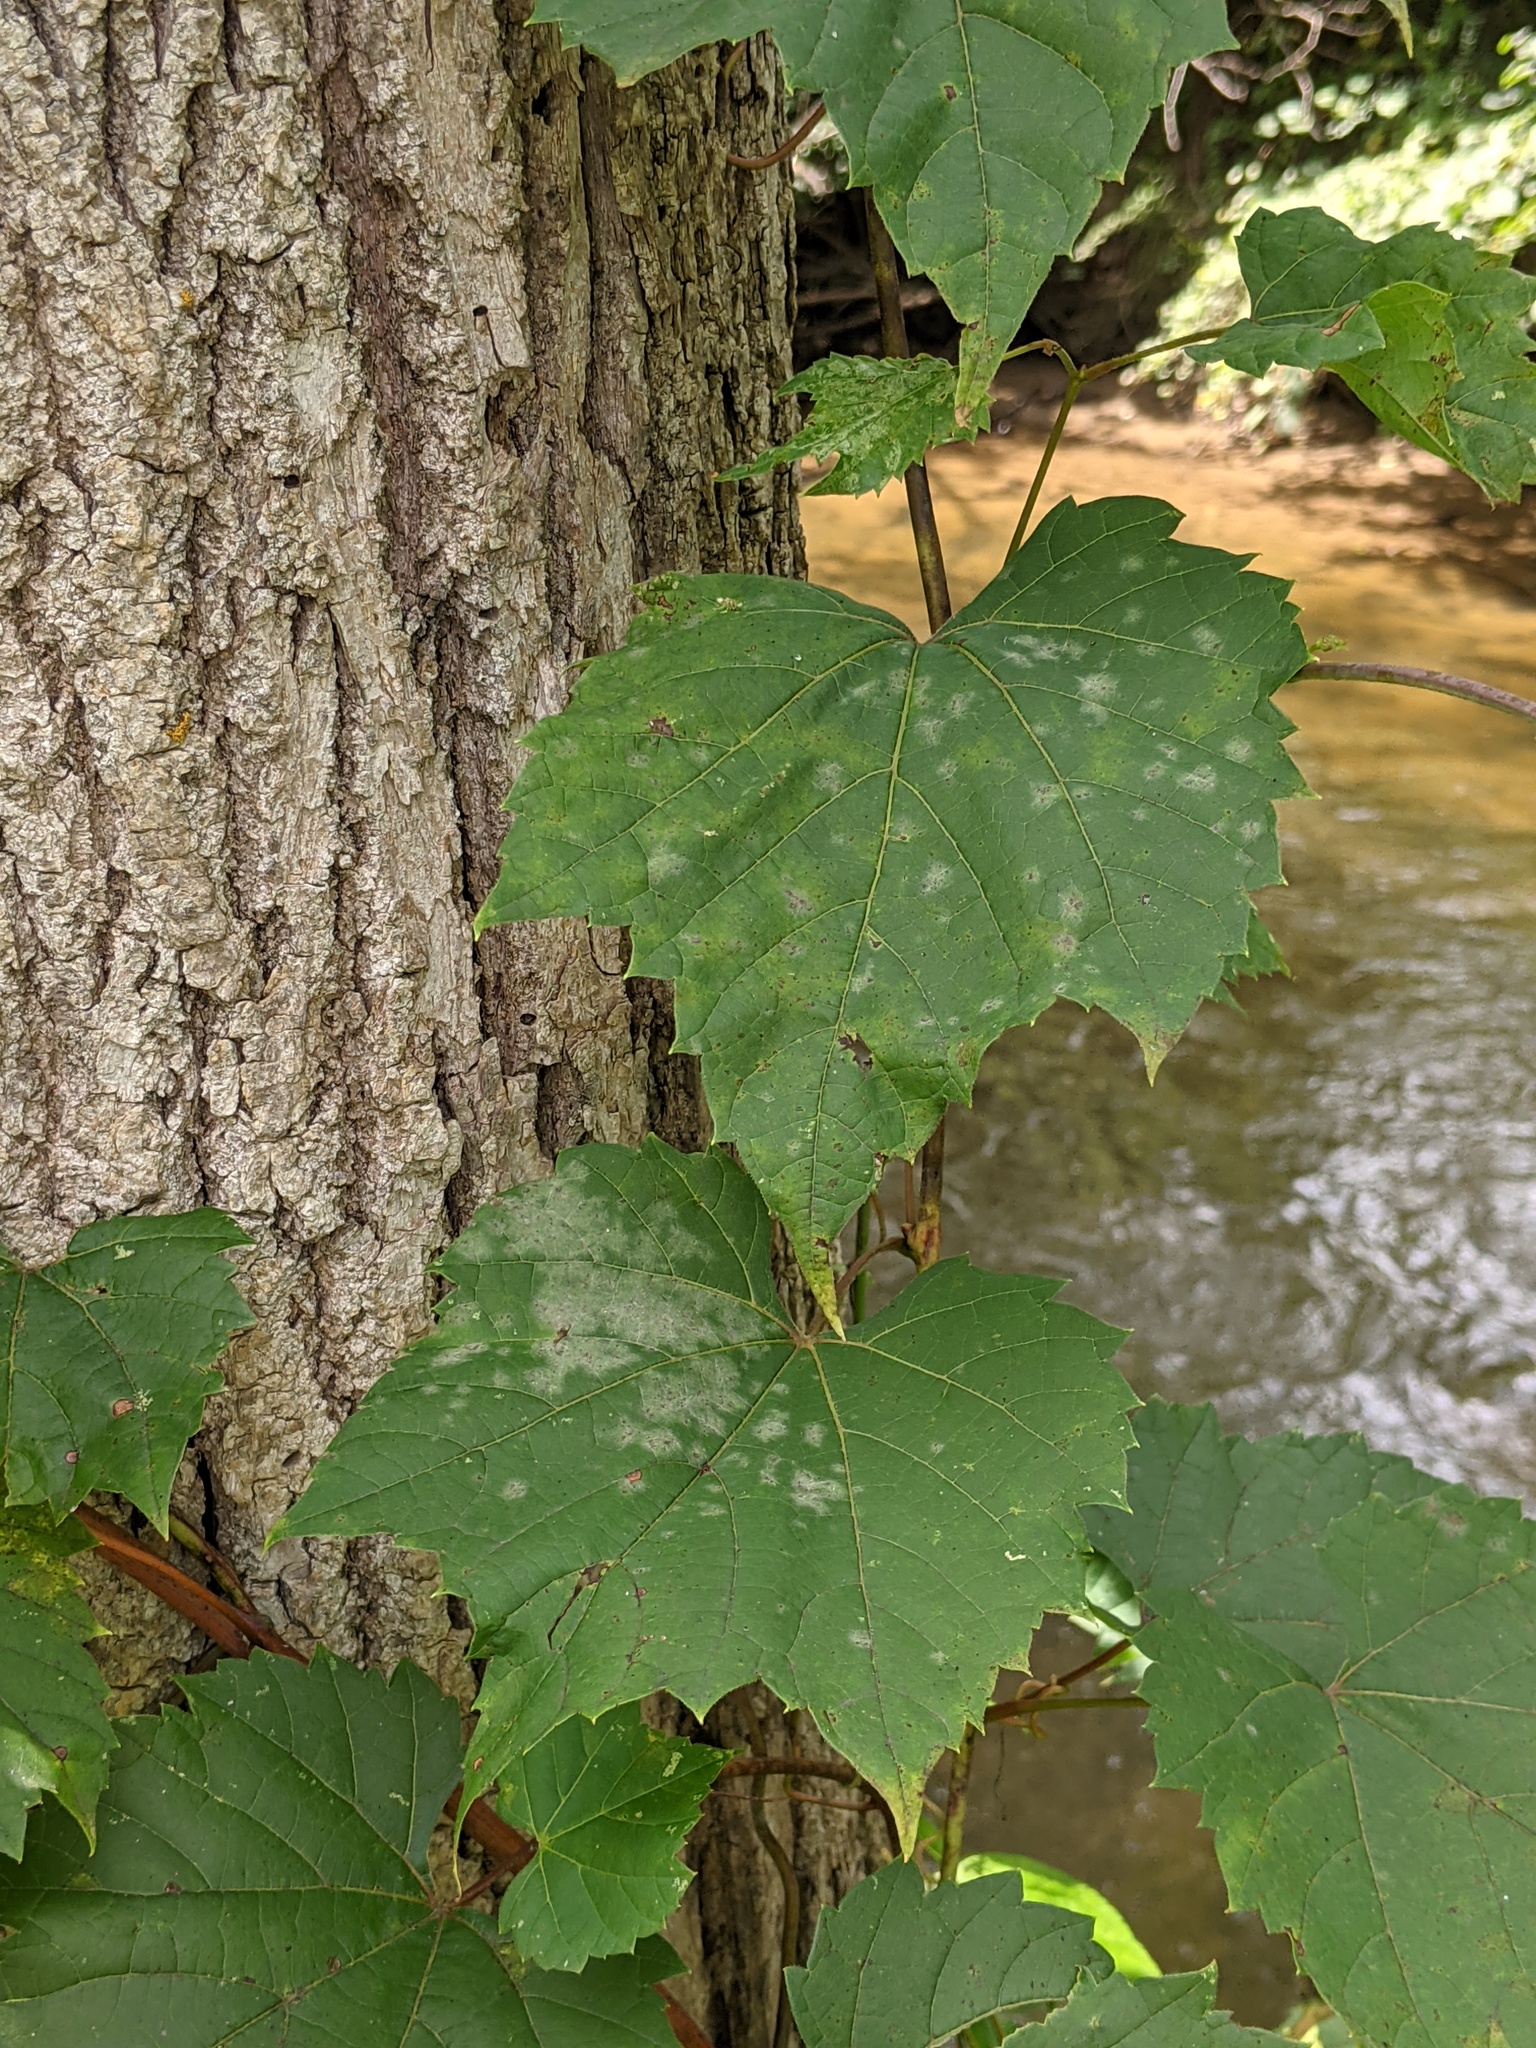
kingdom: Fungi
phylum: Ascomycota
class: Leotiomycetes
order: Helotiales
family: Erysiphaceae
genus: Erysiphe
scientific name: Erysiphe necator
